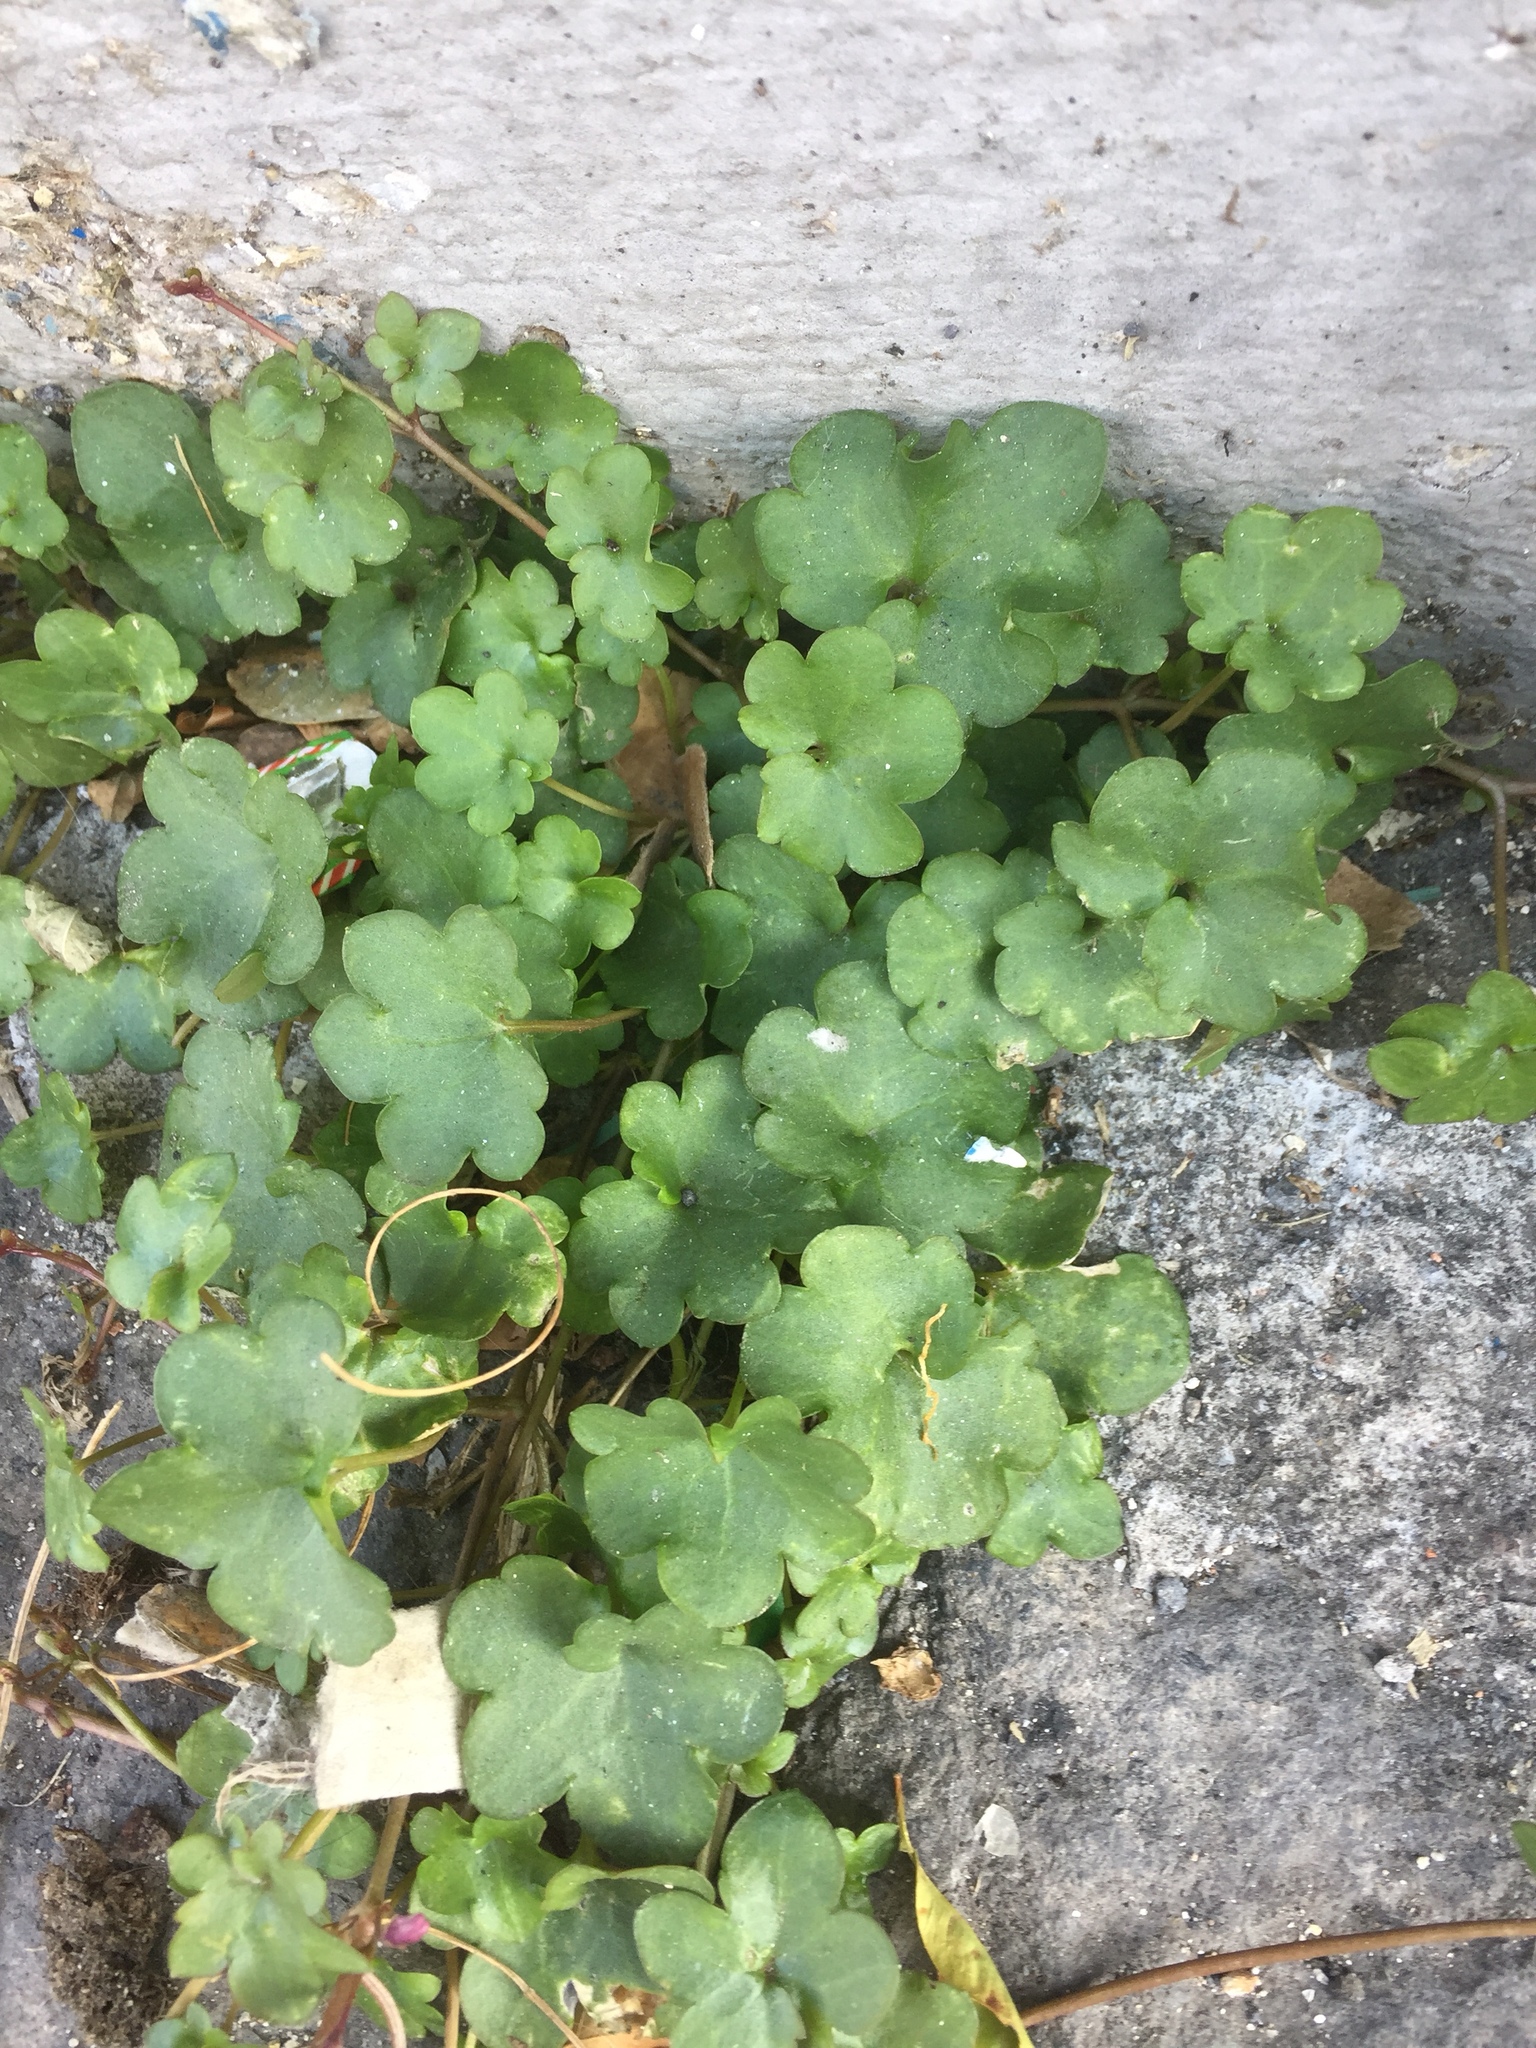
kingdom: Plantae
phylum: Tracheophyta
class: Magnoliopsida
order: Lamiales
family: Plantaginaceae
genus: Cymbalaria
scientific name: Cymbalaria muralis
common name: Ivy-leaved toadflax
